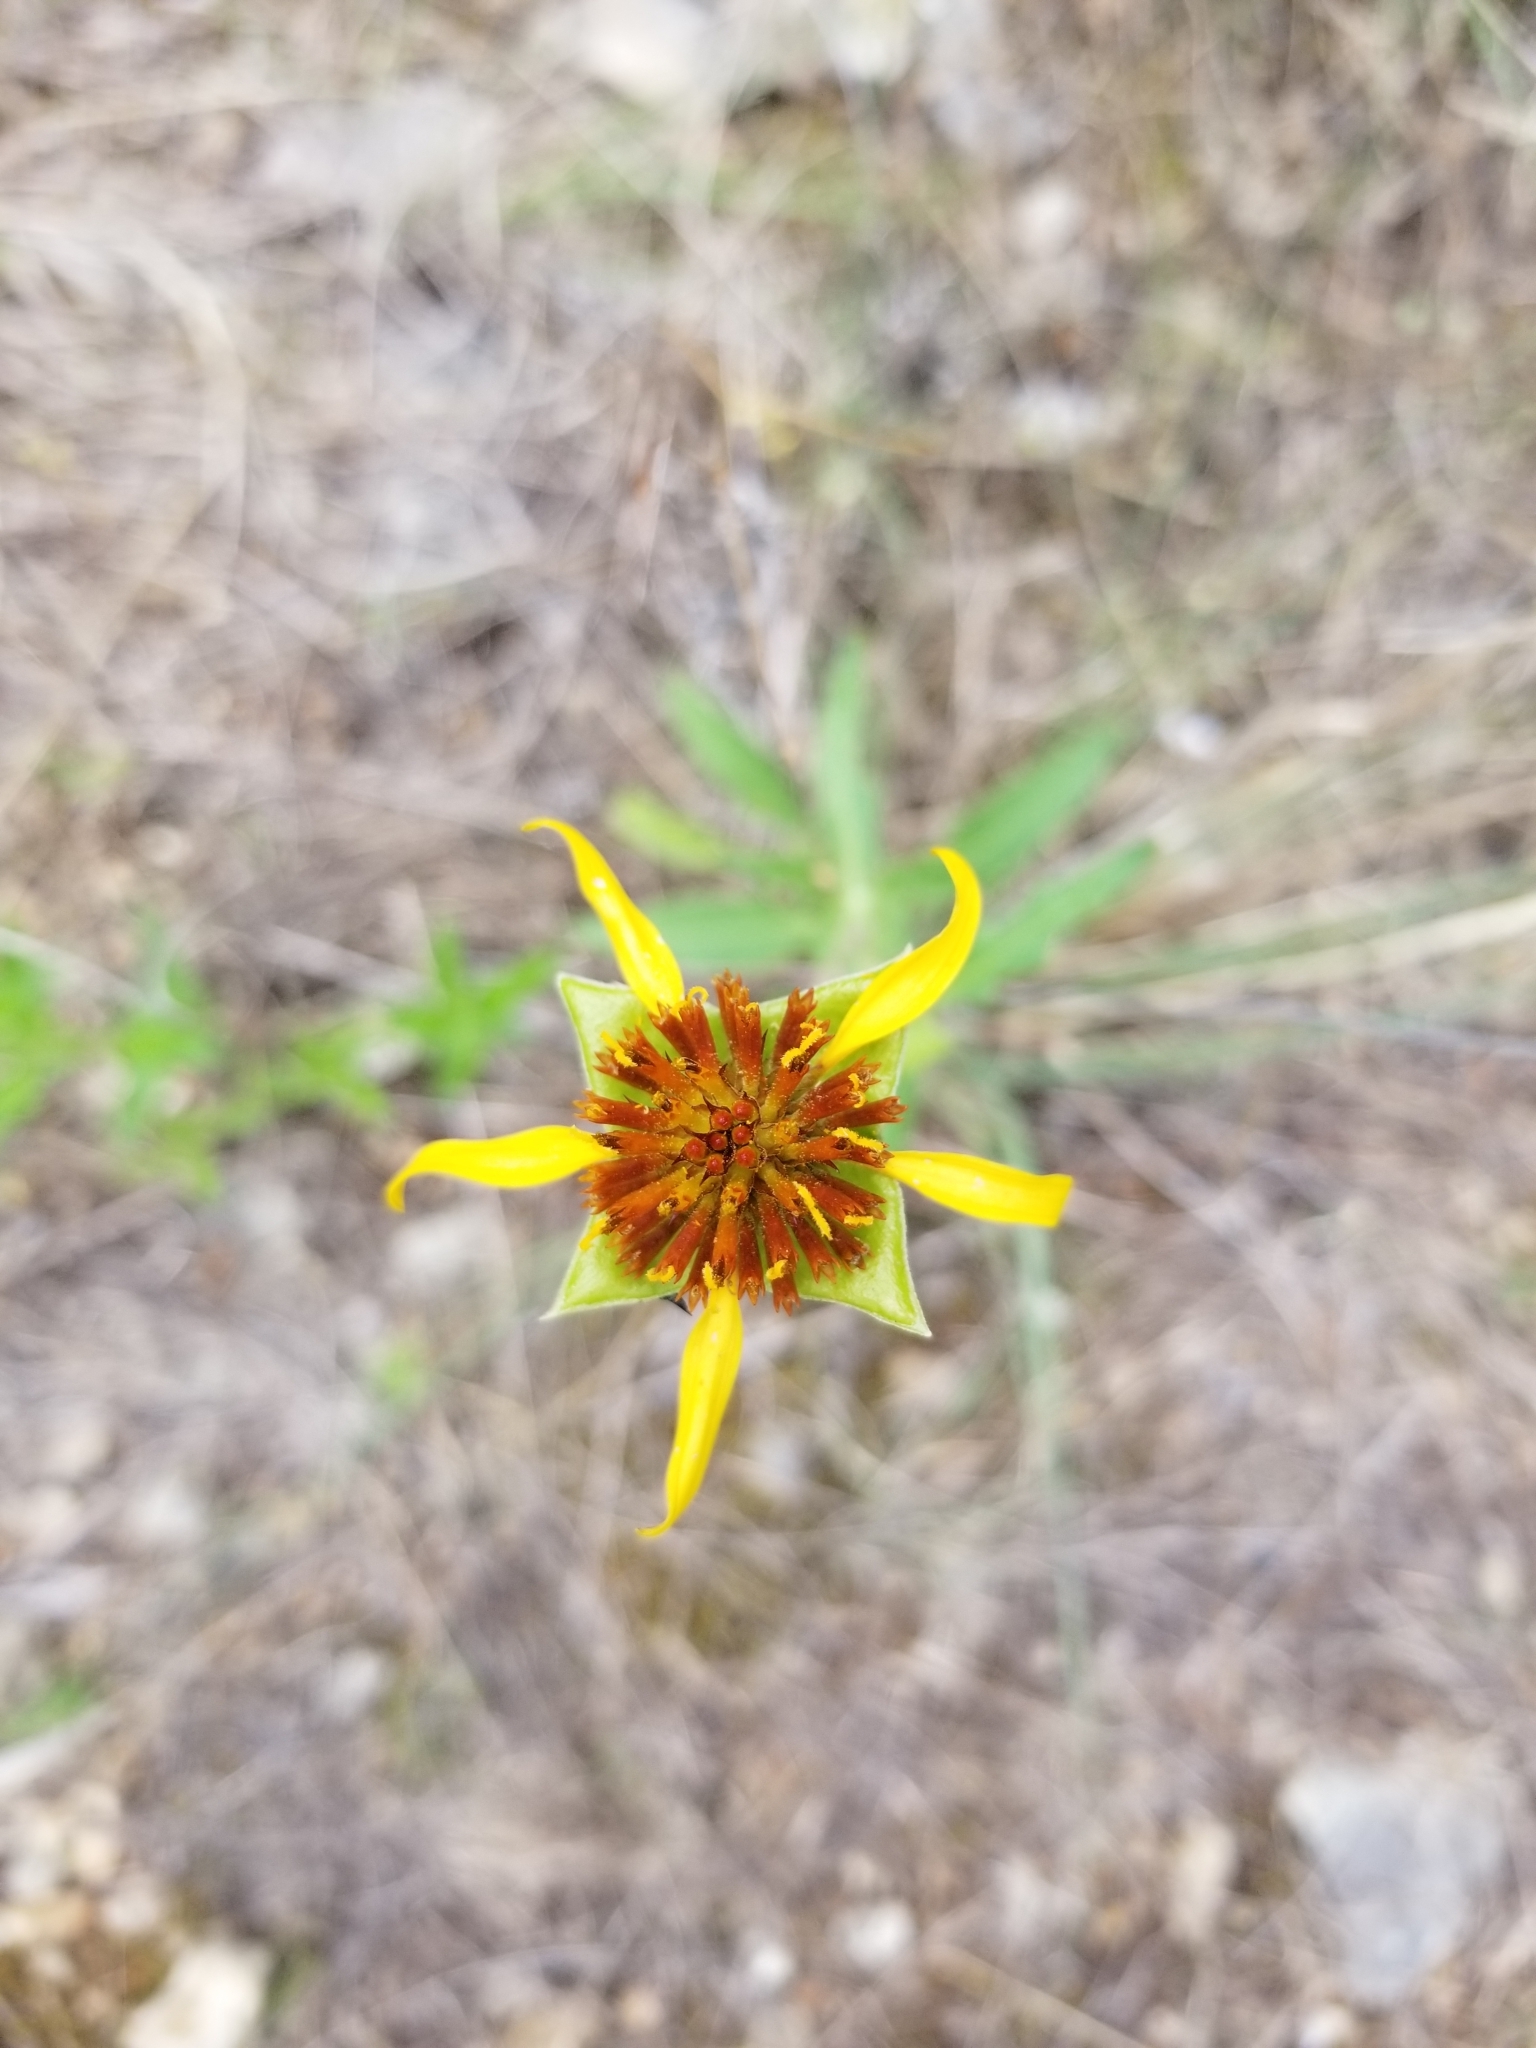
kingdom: Plantae
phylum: Tracheophyta
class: Magnoliopsida
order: Asterales
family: Asteraceae
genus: Tetragonotheca
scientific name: Tetragonotheca texana
